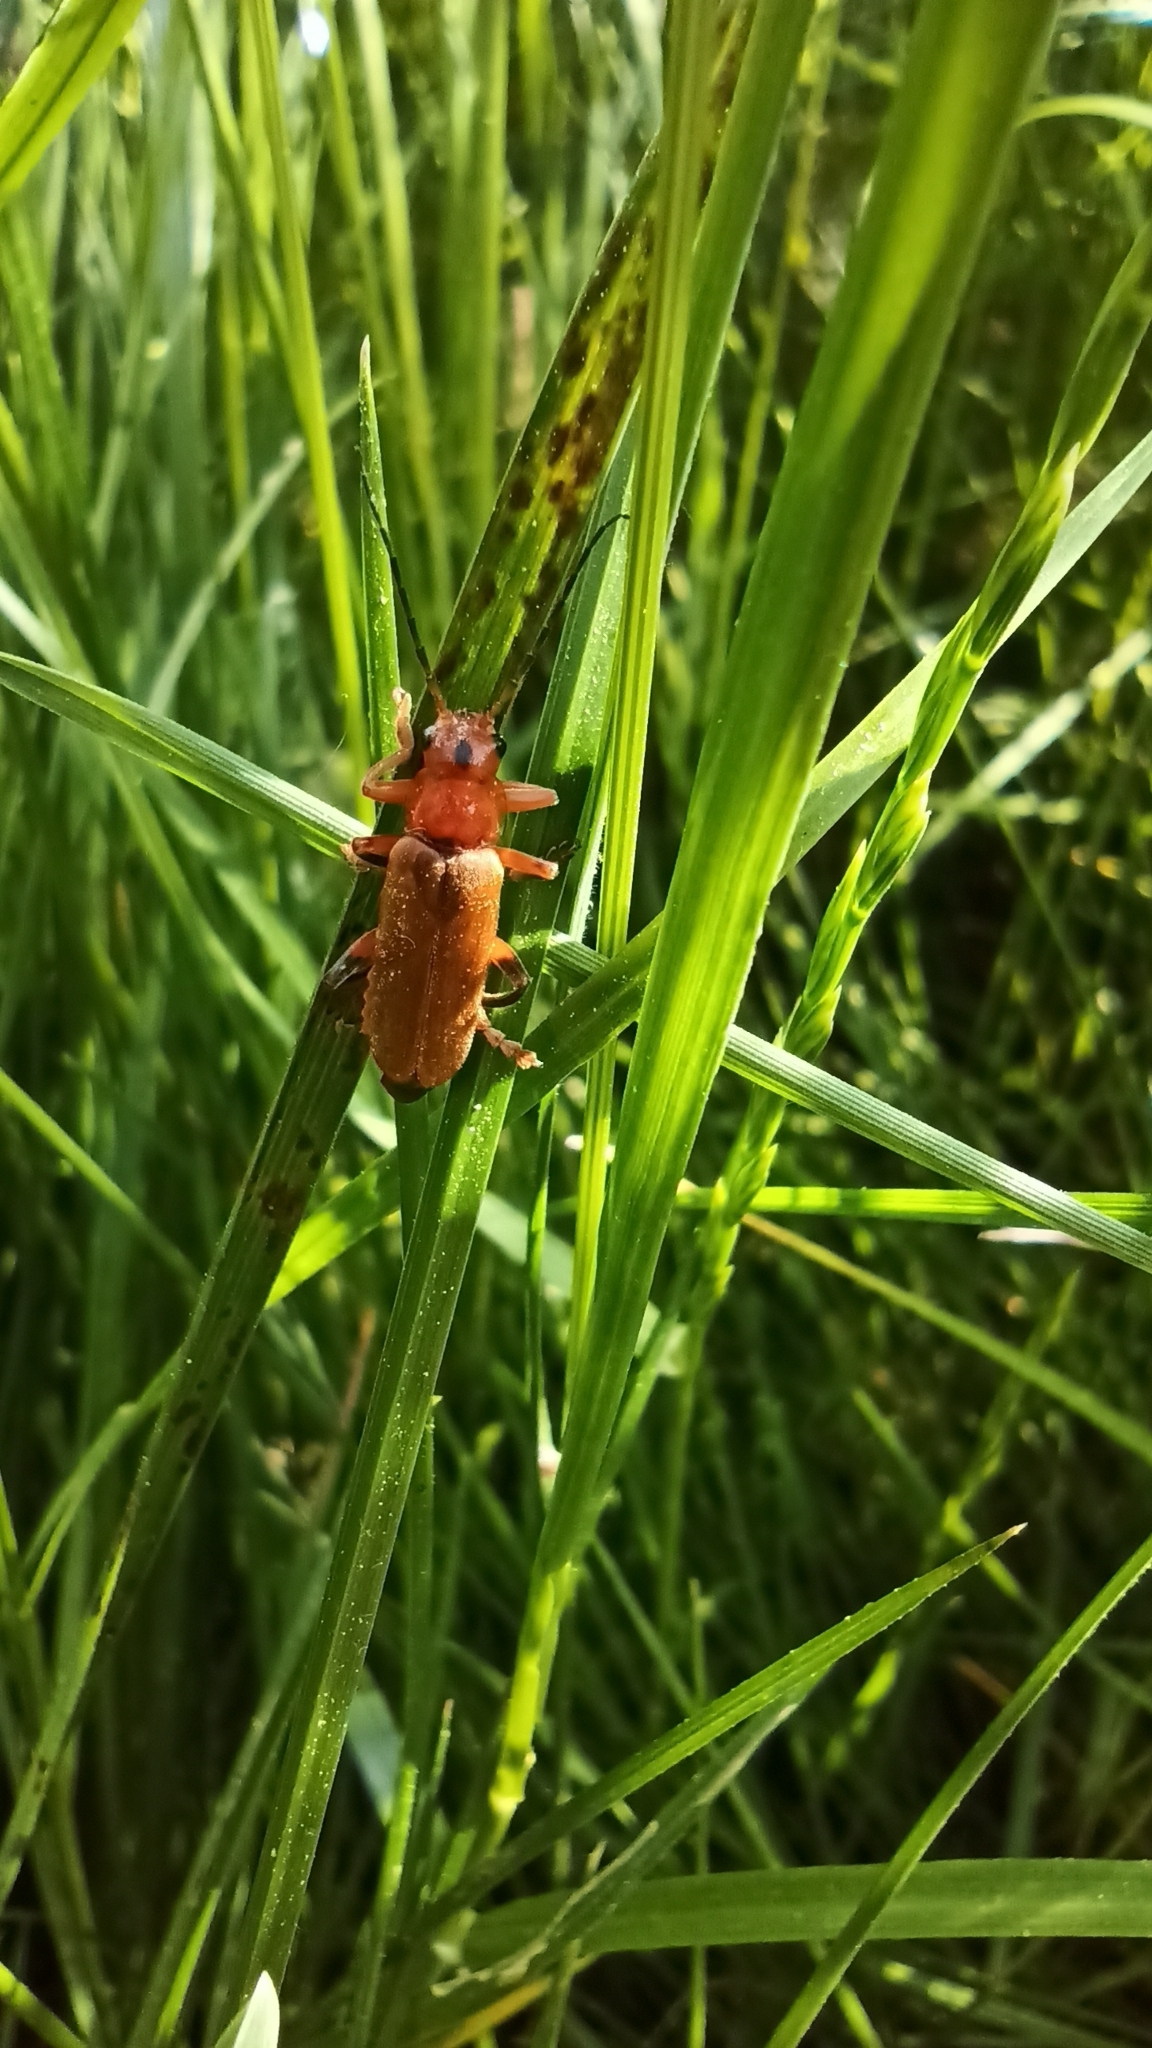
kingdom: Animalia
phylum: Arthropoda
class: Insecta
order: Coleoptera
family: Cantharidae
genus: Cantharis
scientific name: Cantharis livida
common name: Livid soldier beetle
